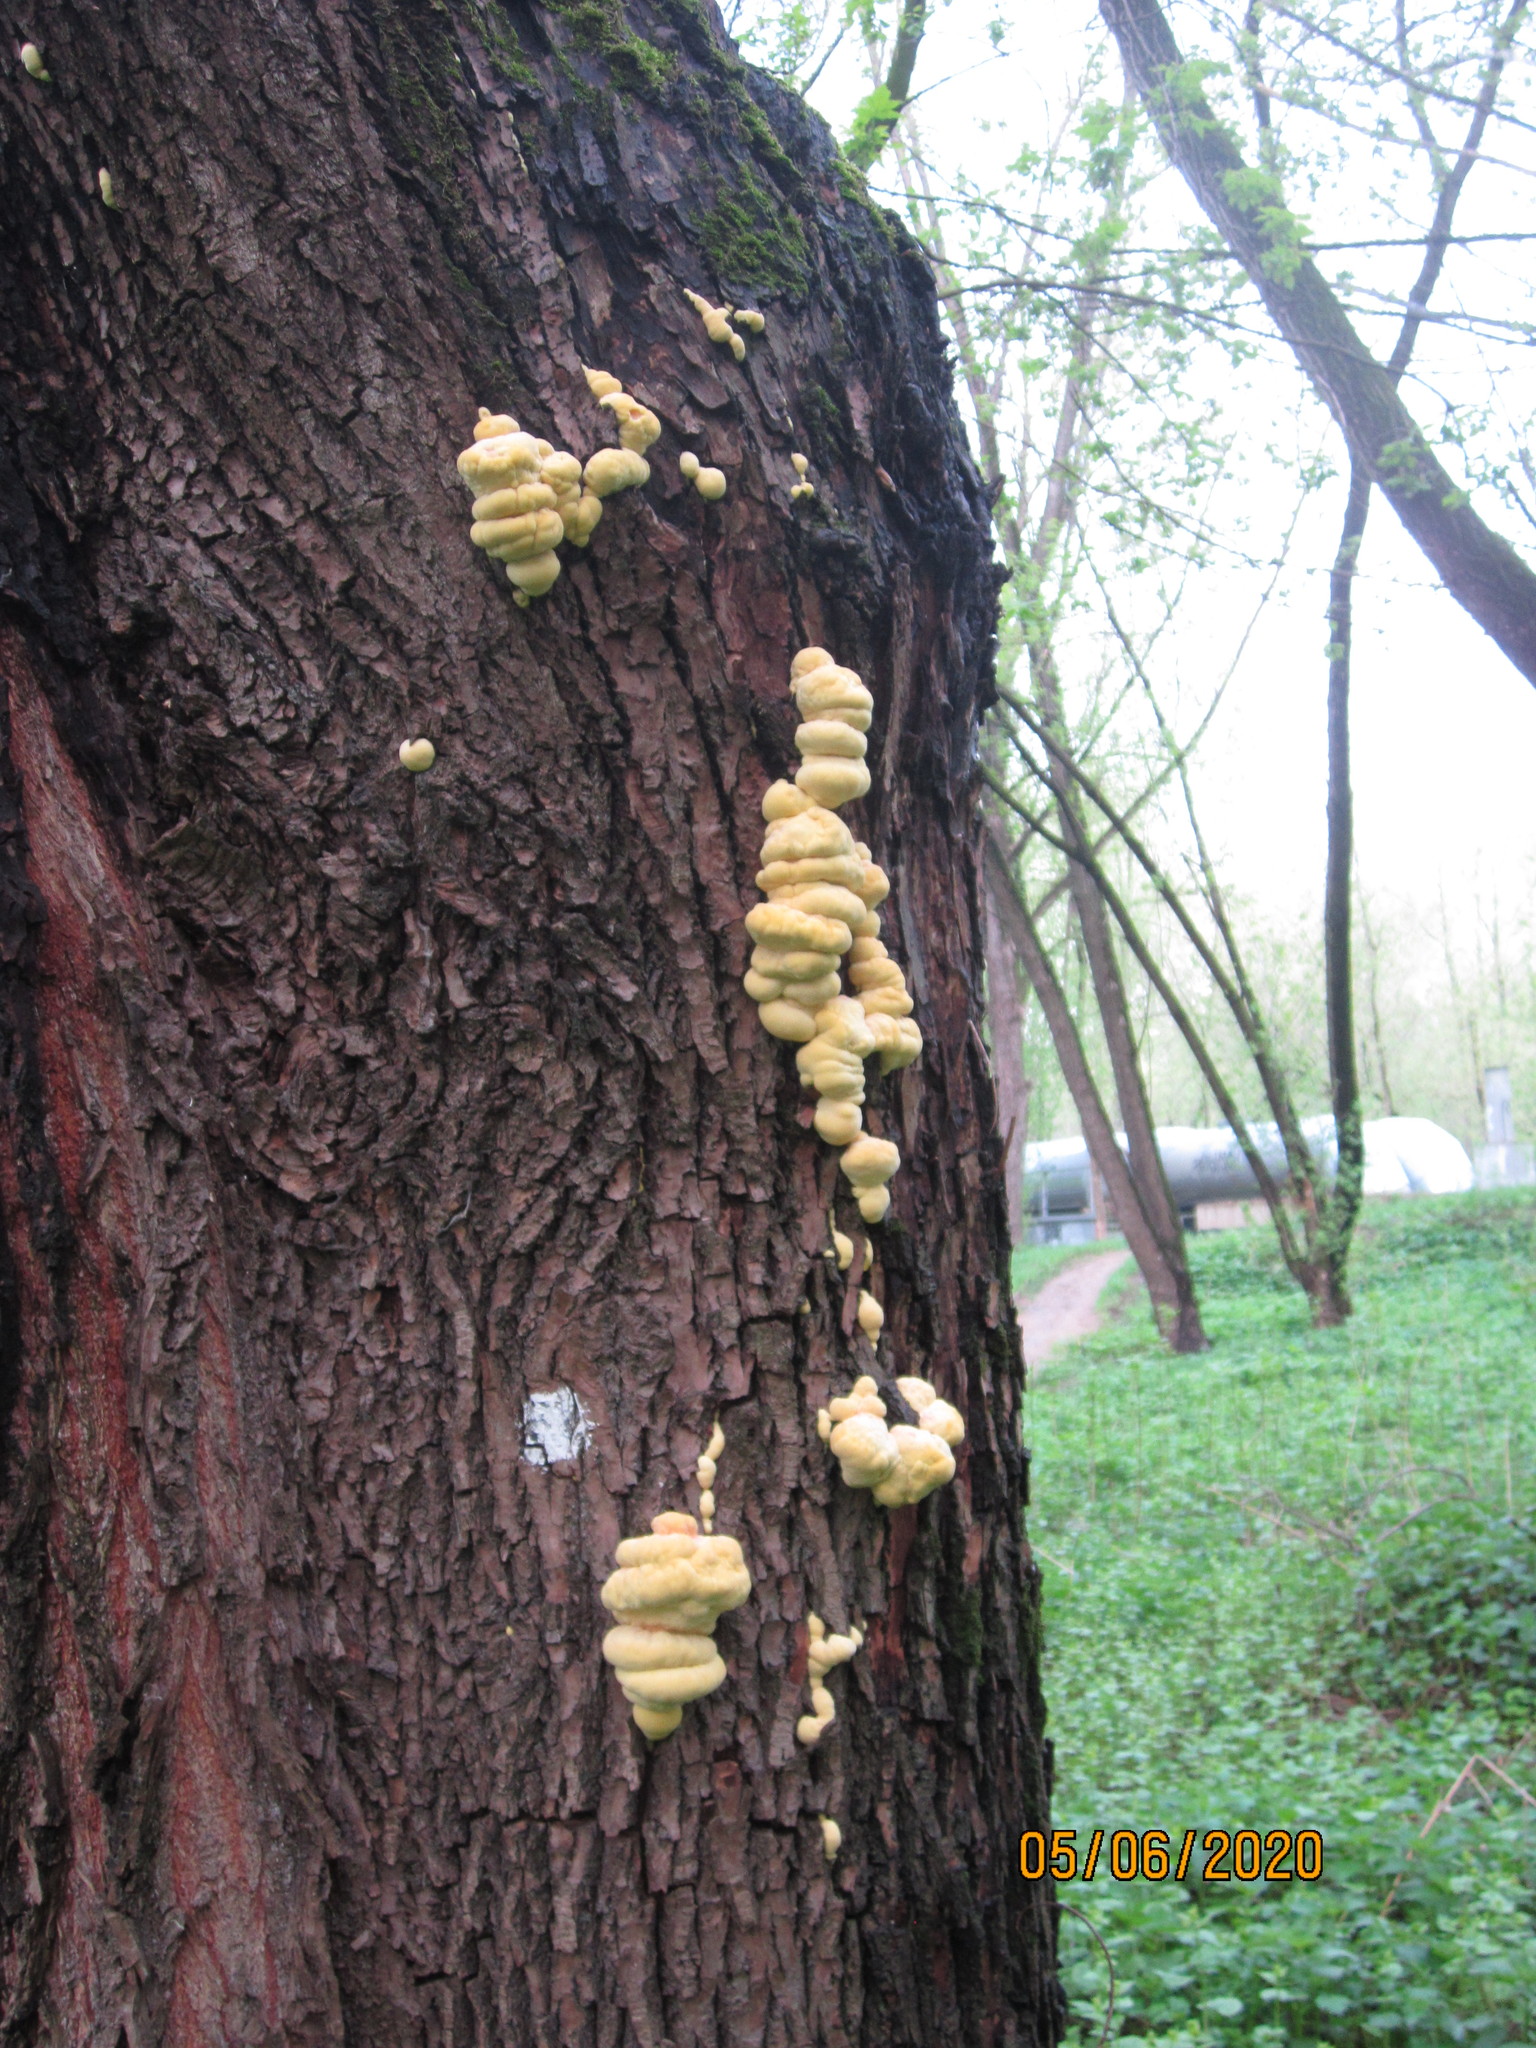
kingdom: Fungi
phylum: Basidiomycota
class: Agaricomycetes
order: Polyporales
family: Laetiporaceae
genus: Laetiporus
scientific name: Laetiporus sulphureus
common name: Chicken of the woods
